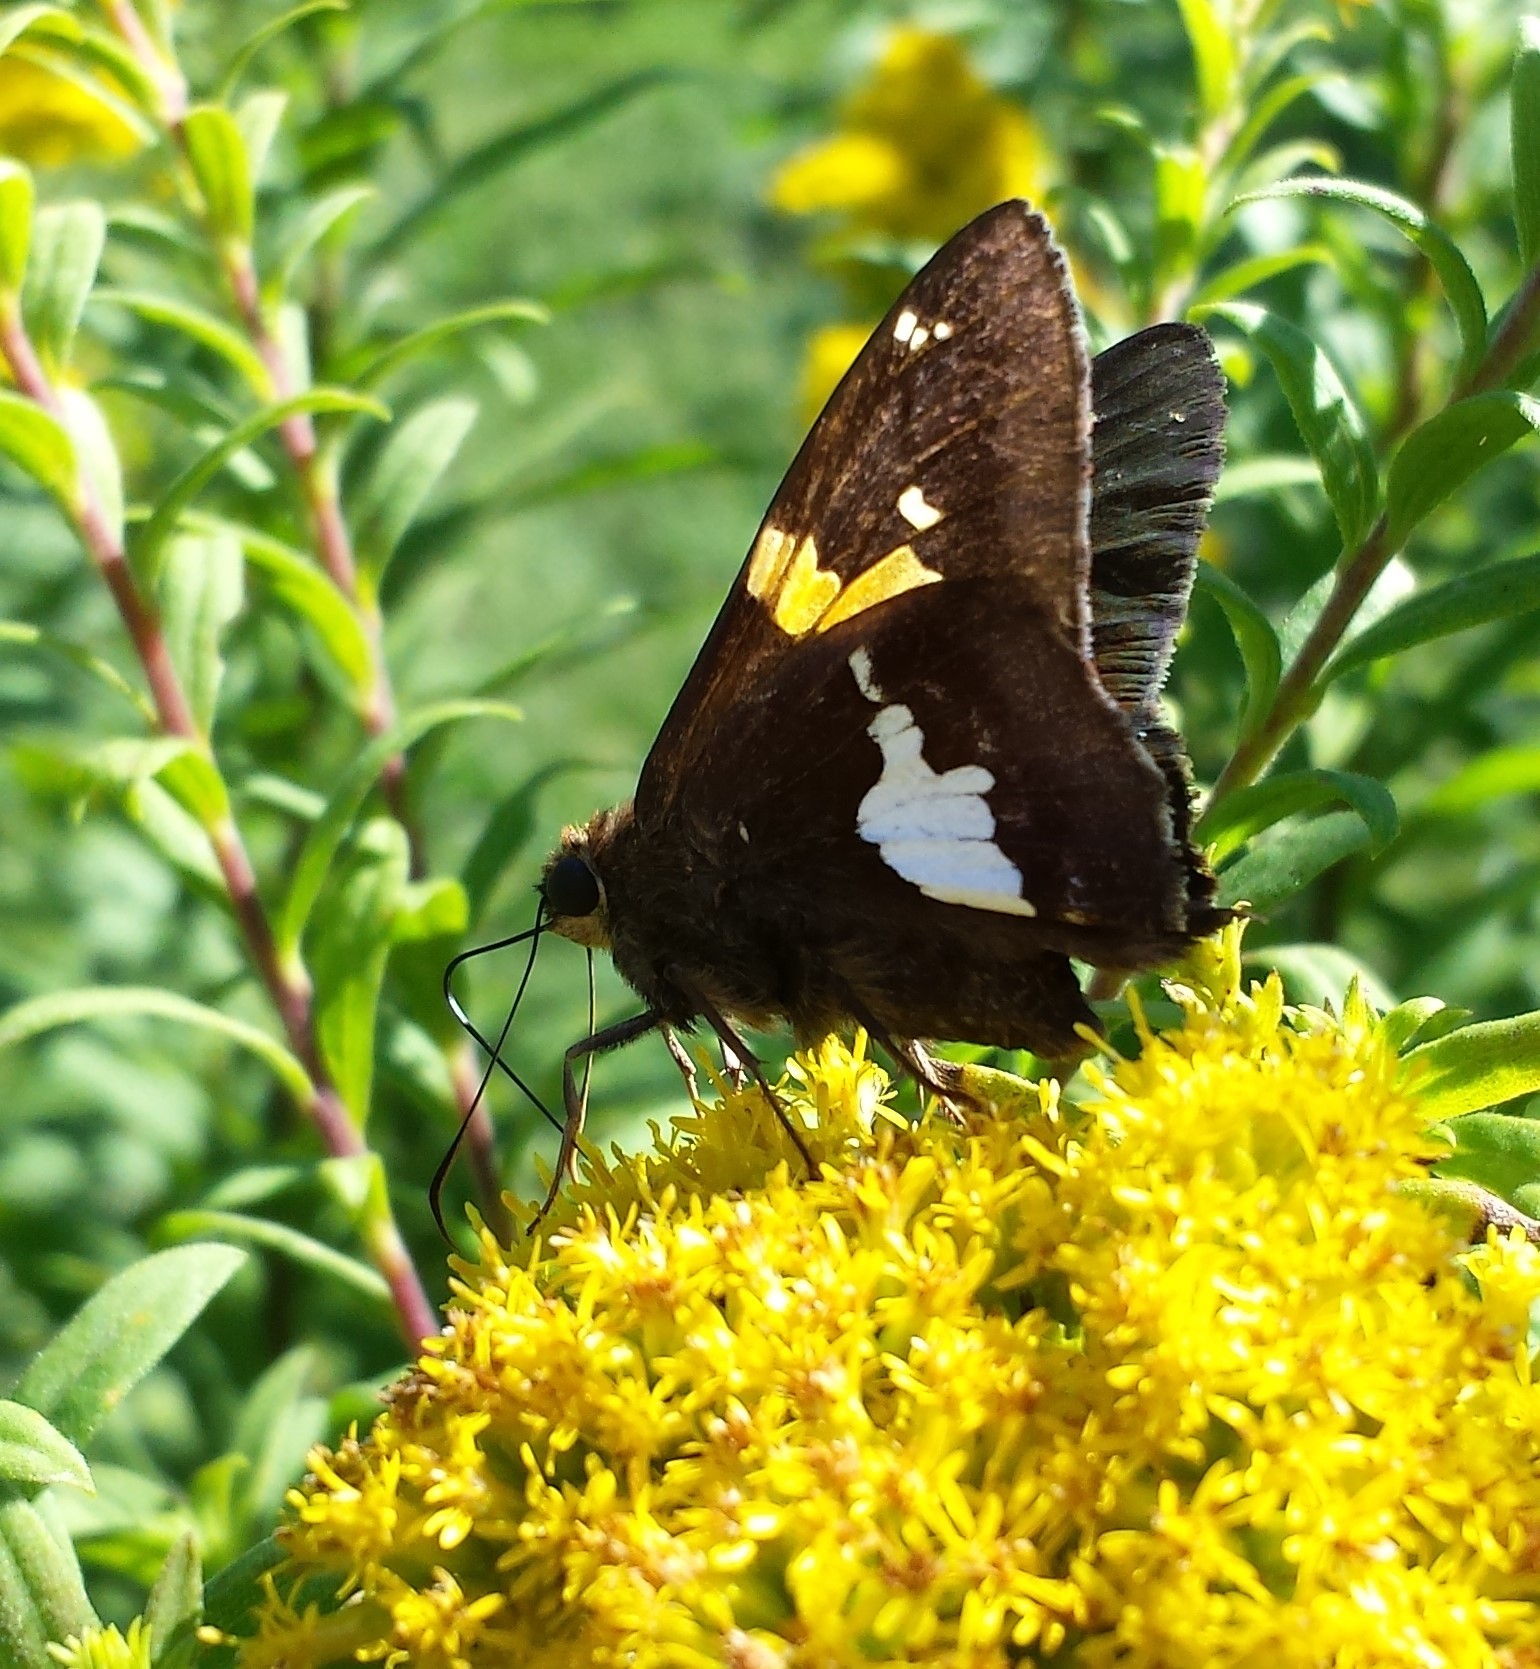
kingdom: Animalia
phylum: Arthropoda
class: Insecta
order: Lepidoptera
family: Hesperiidae
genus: Epargyreus
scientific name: Epargyreus clarus
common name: Silver-spotted skipper
